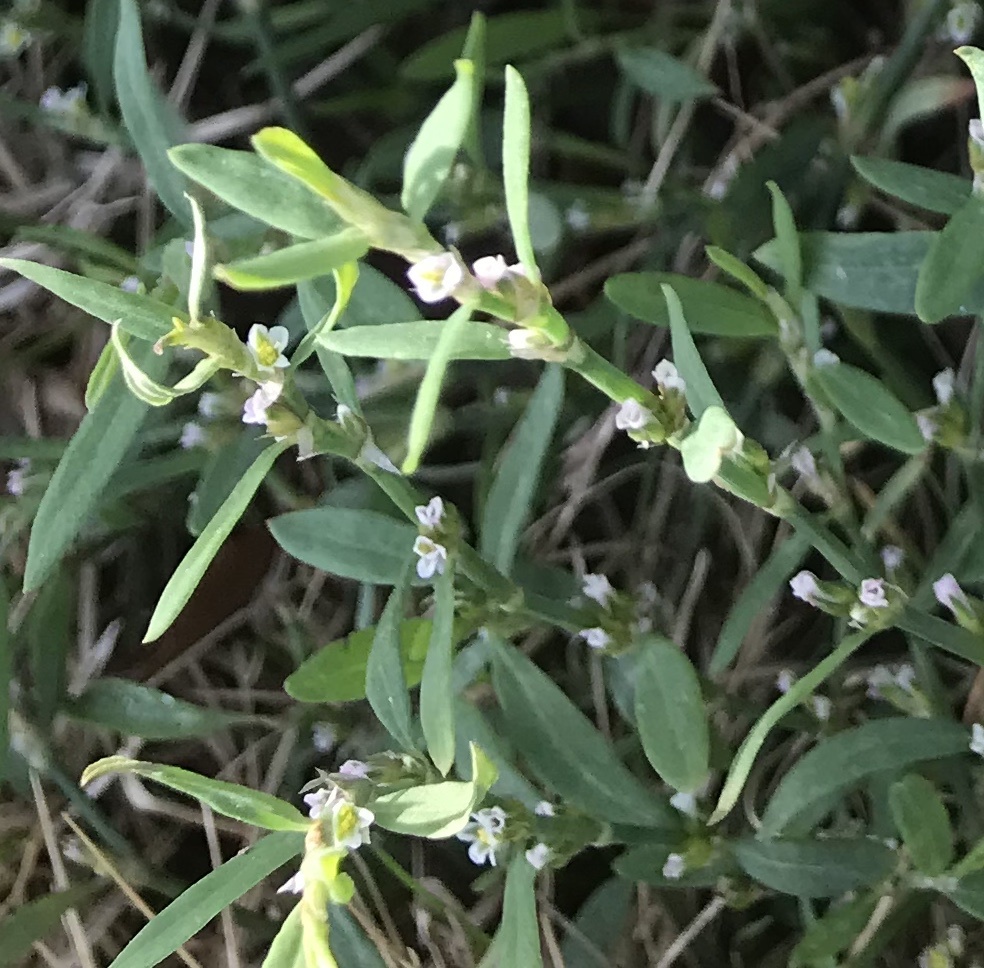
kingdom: Plantae
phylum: Tracheophyta
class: Magnoliopsida
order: Caryophyllales
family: Polygonaceae
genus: Polygonum
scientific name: Polygonum aviculare
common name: Prostrate knotweed
